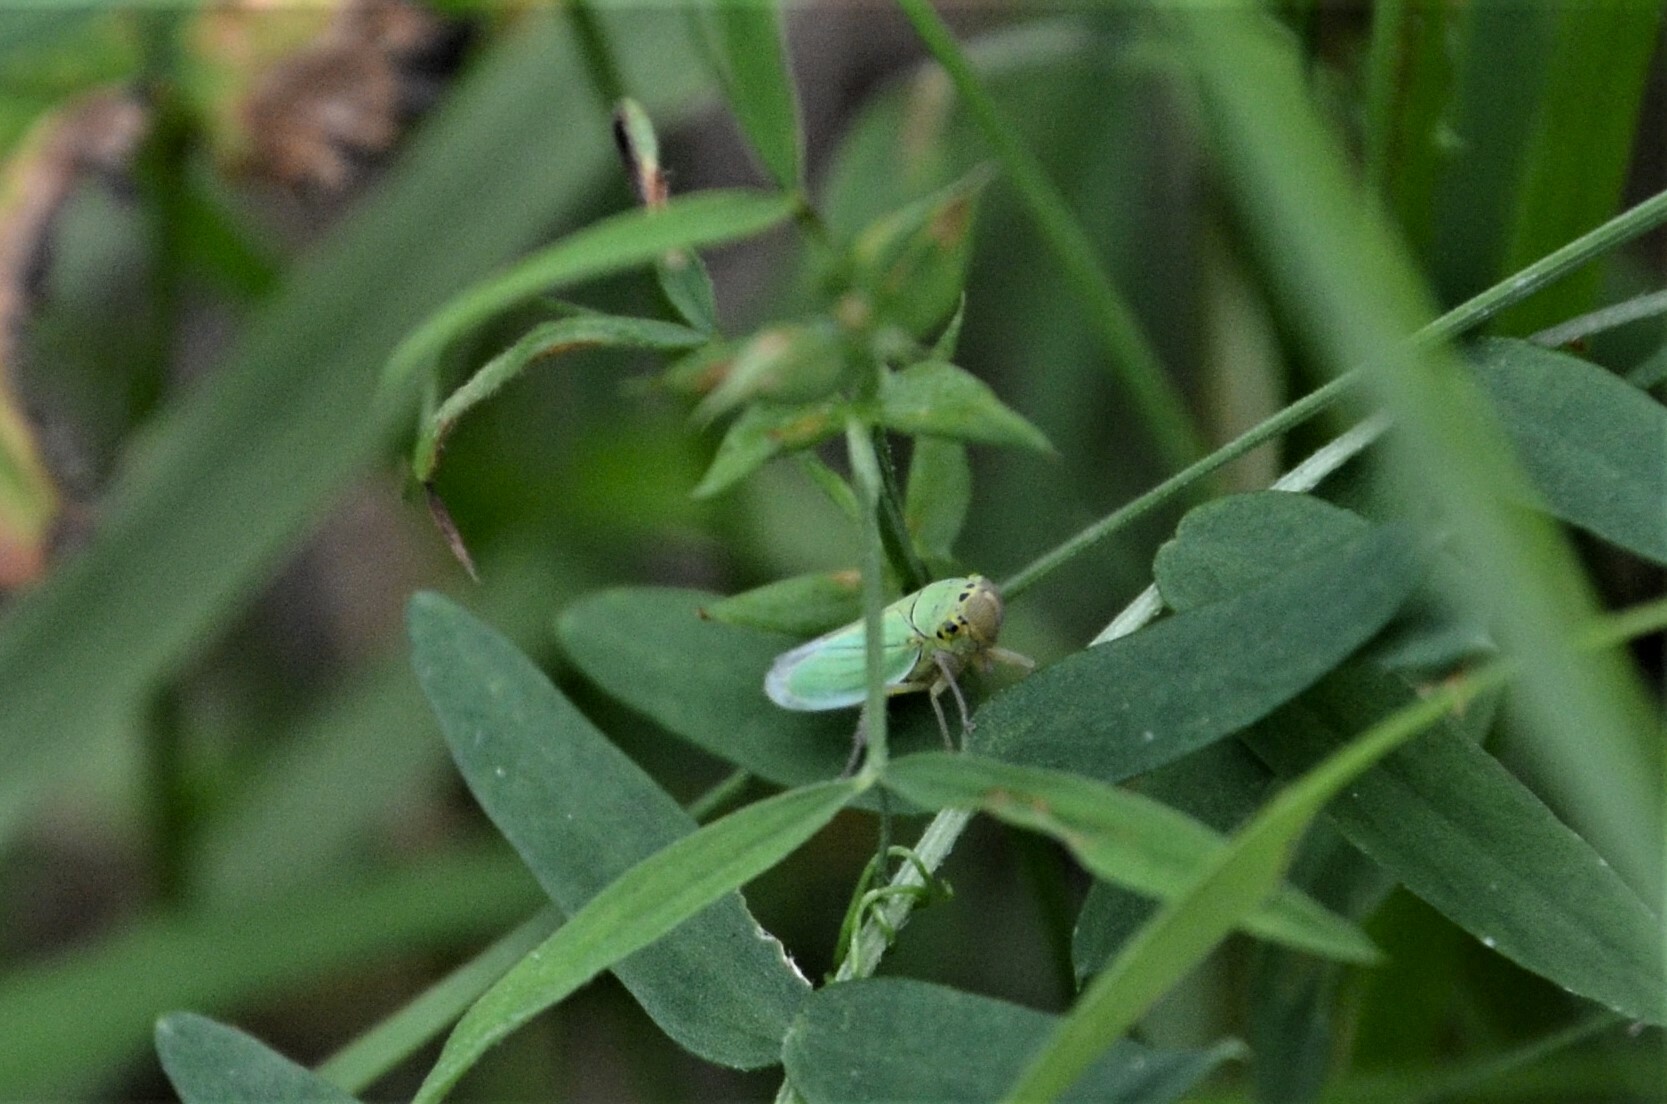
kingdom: Animalia
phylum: Arthropoda
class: Insecta
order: Hemiptera
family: Cicadellidae
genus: Cicadella
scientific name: Cicadella viridis
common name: Leafhopper
